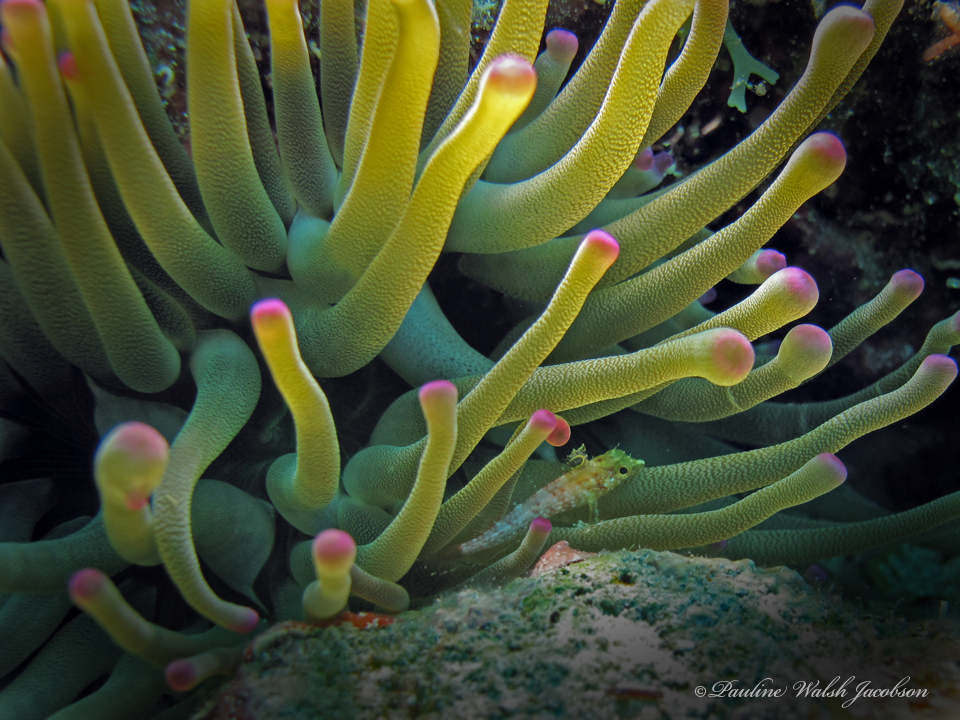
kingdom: Animalia
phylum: Cnidaria
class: Anthozoa
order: Actiniaria
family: Actiniidae
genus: Condylactis
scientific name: Condylactis gigantea
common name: Giant caribbean anemone
